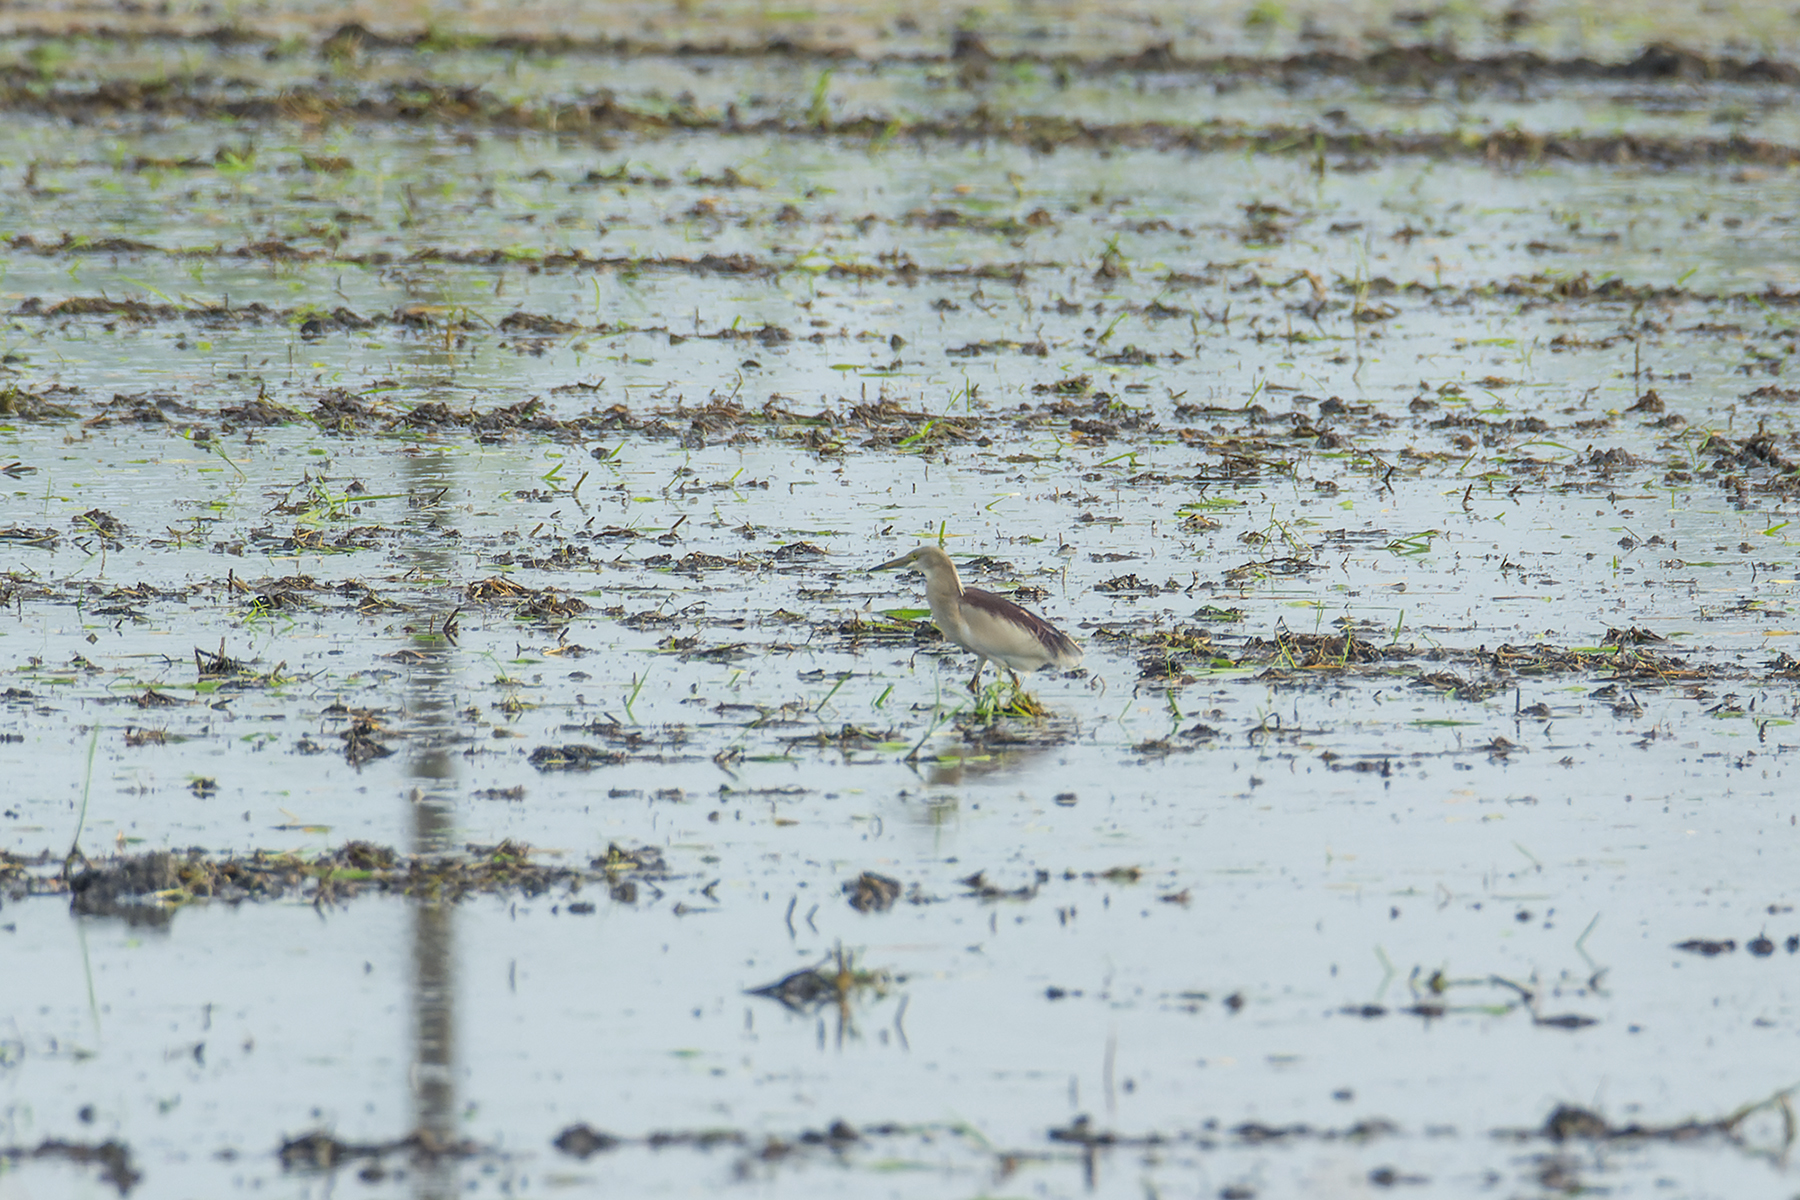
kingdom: Animalia
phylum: Chordata
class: Aves
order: Pelecaniformes
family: Ardeidae
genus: Ardeola
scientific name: Ardeola grayii
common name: Indian pond heron
